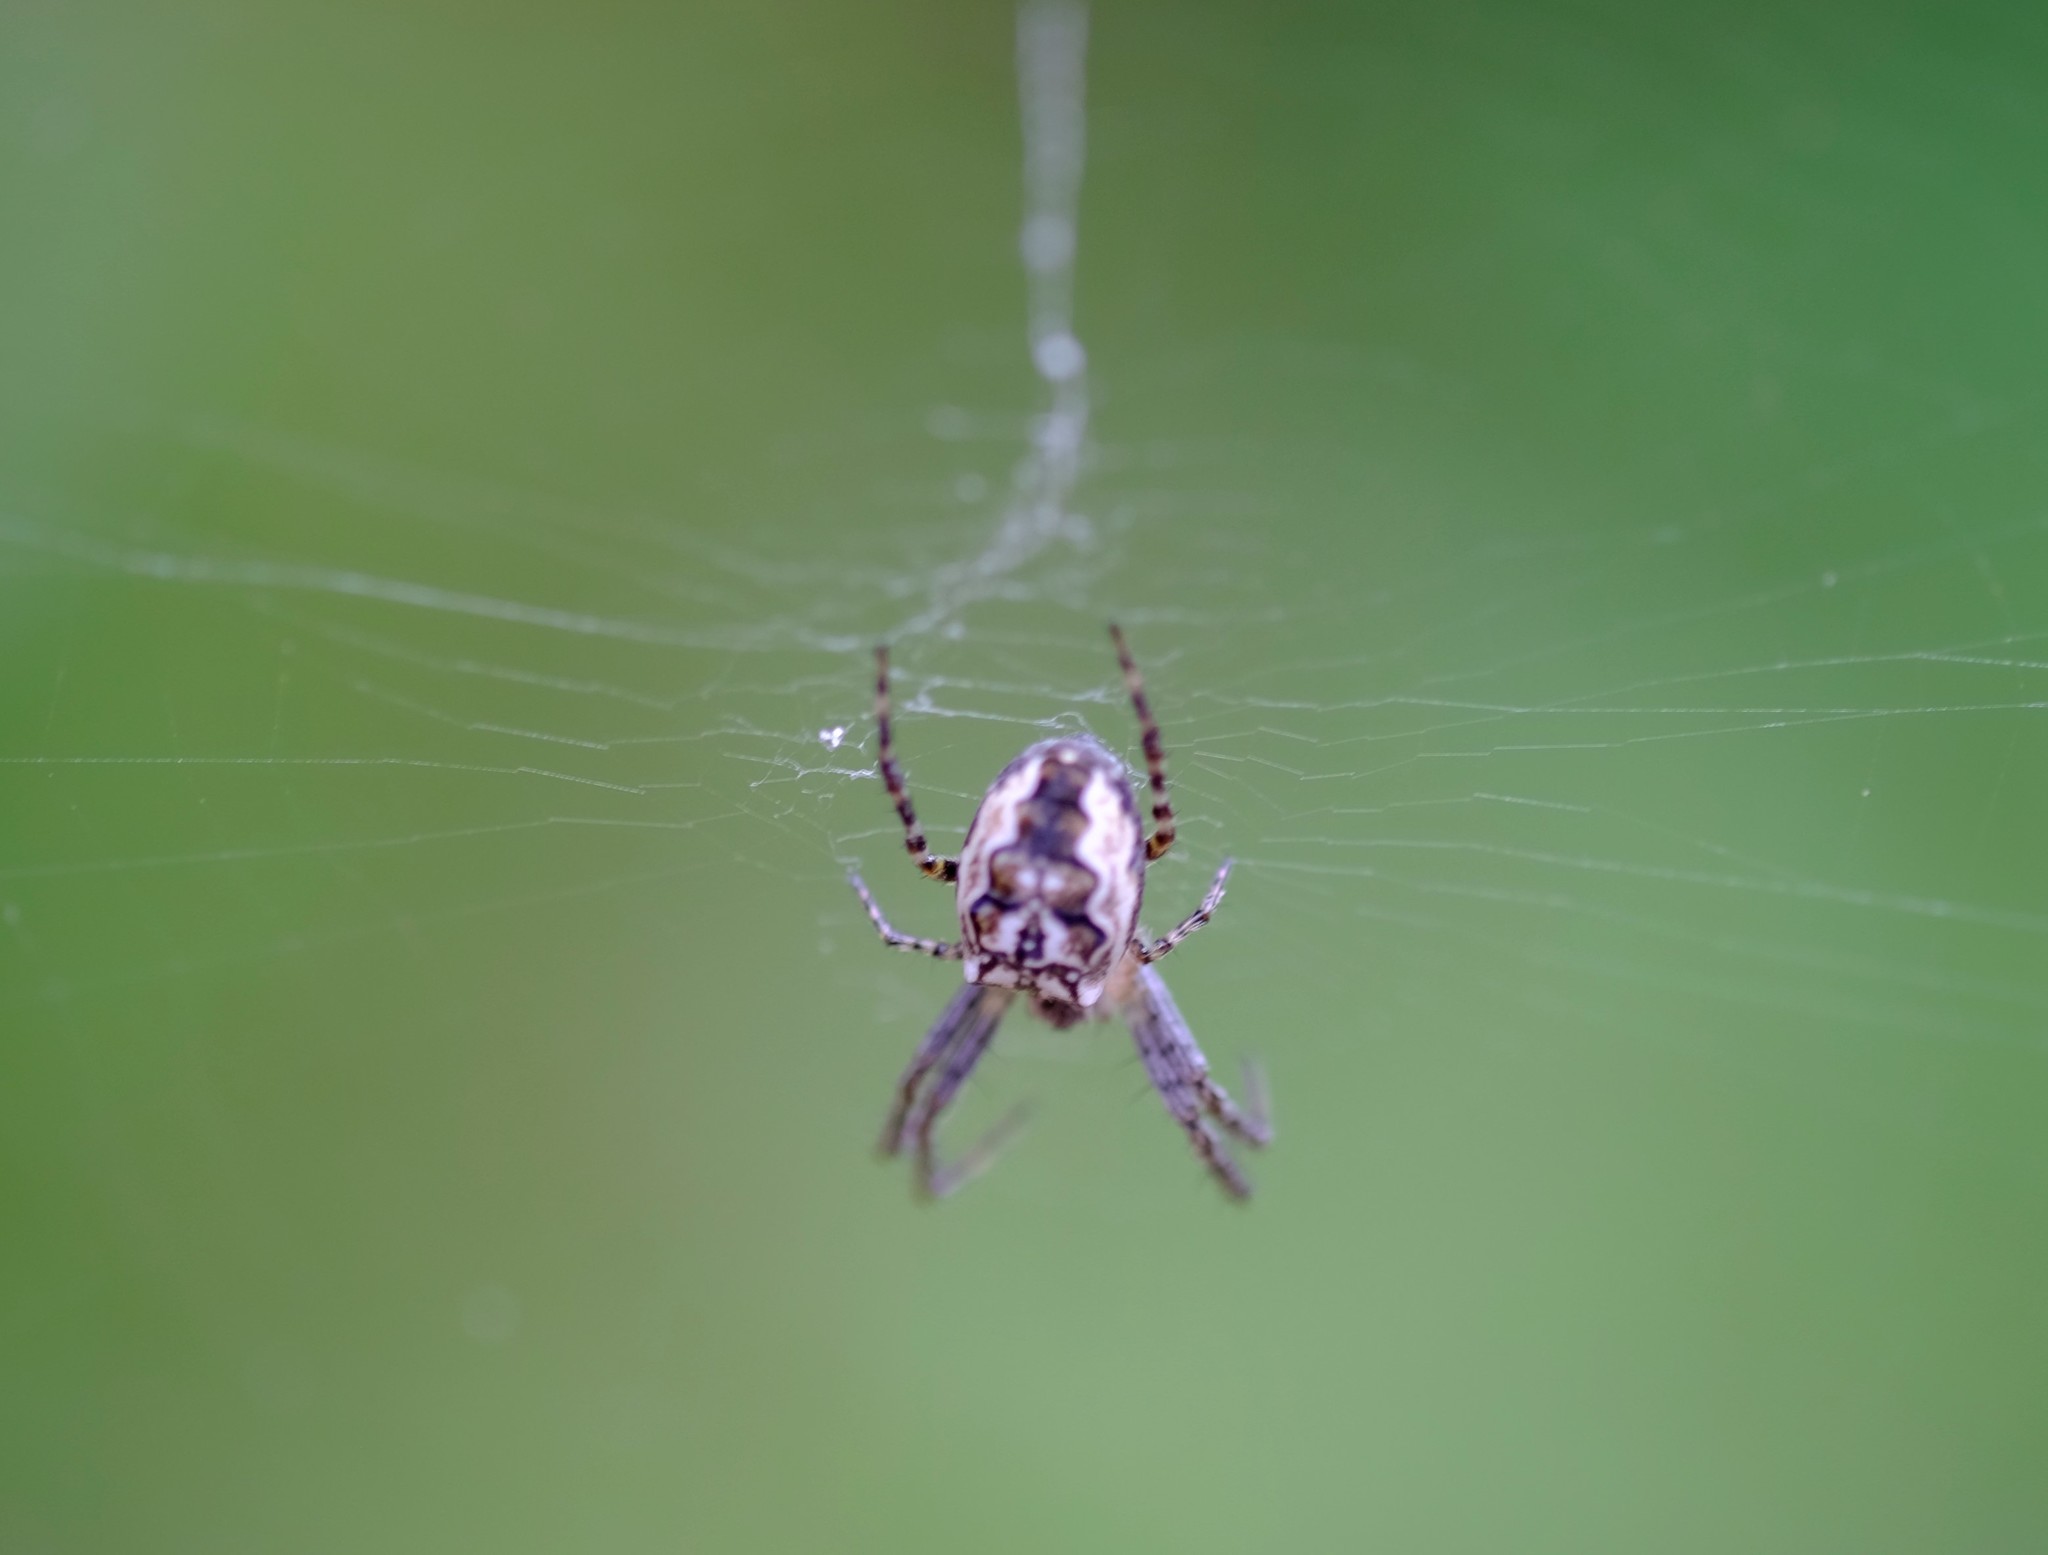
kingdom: Animalia
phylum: Arthropoda
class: Arachnida
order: Araneae
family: Araneidae
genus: Plebs
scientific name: Plebs eburnus
